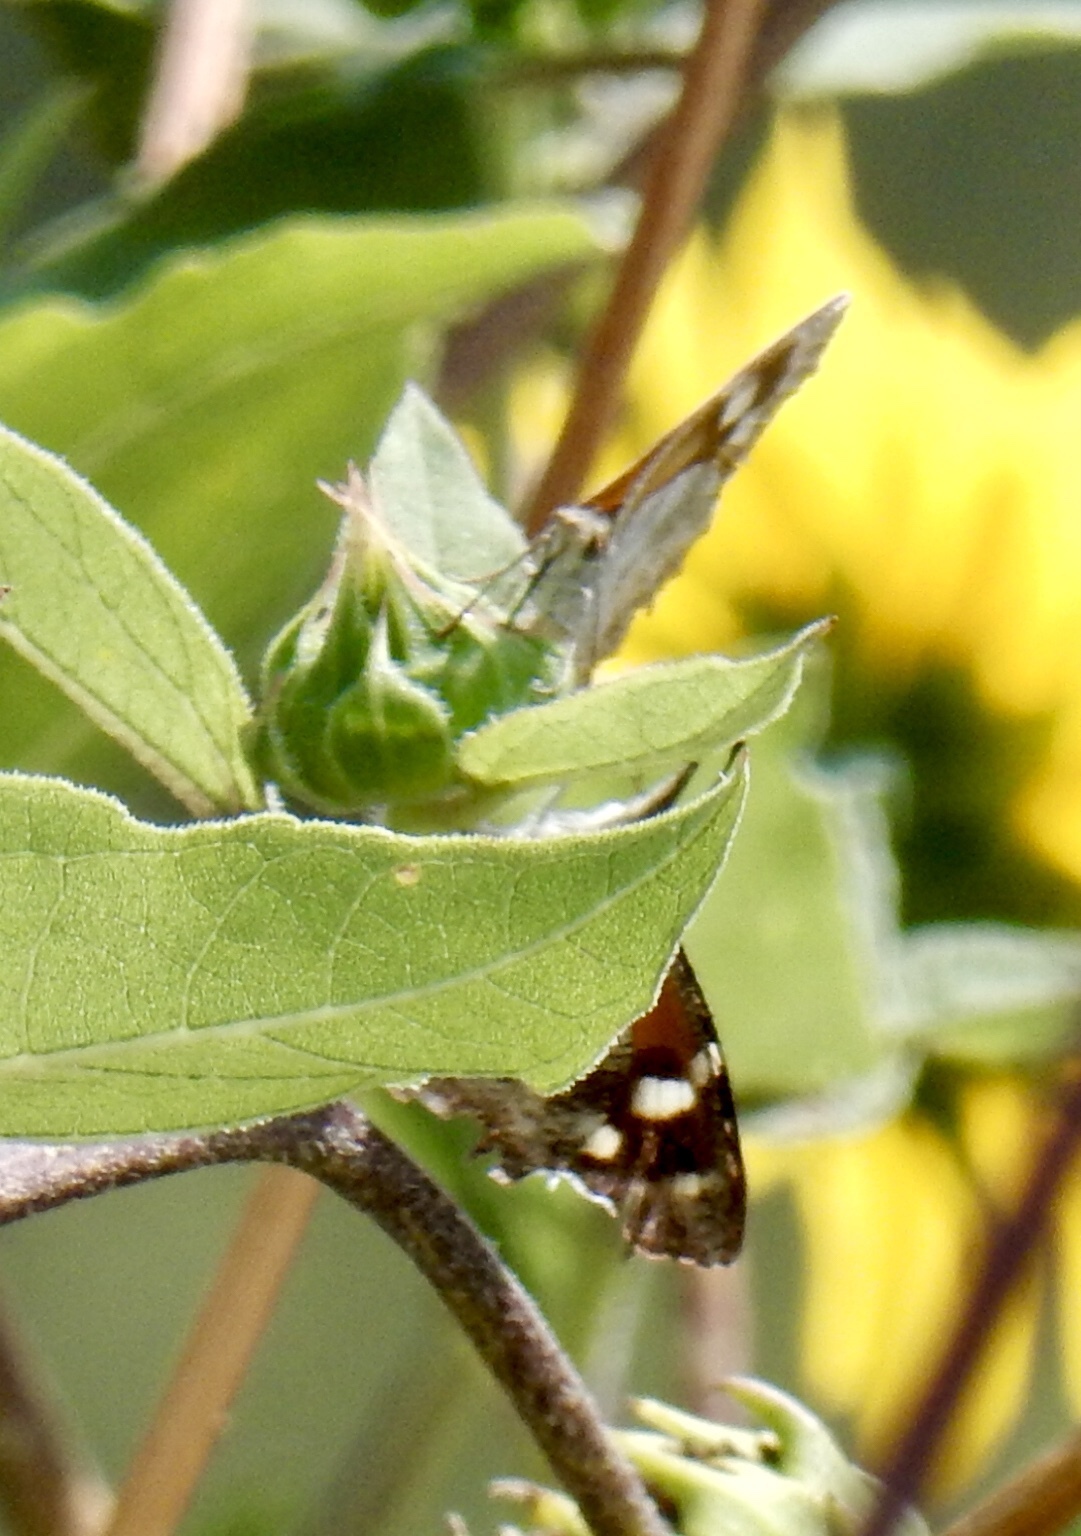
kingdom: Animalia
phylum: Arthropoda
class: Insecta
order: Lepidoptera
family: Nymphalidae
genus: Libytheana
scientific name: Libytheana carinenta
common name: American snout
